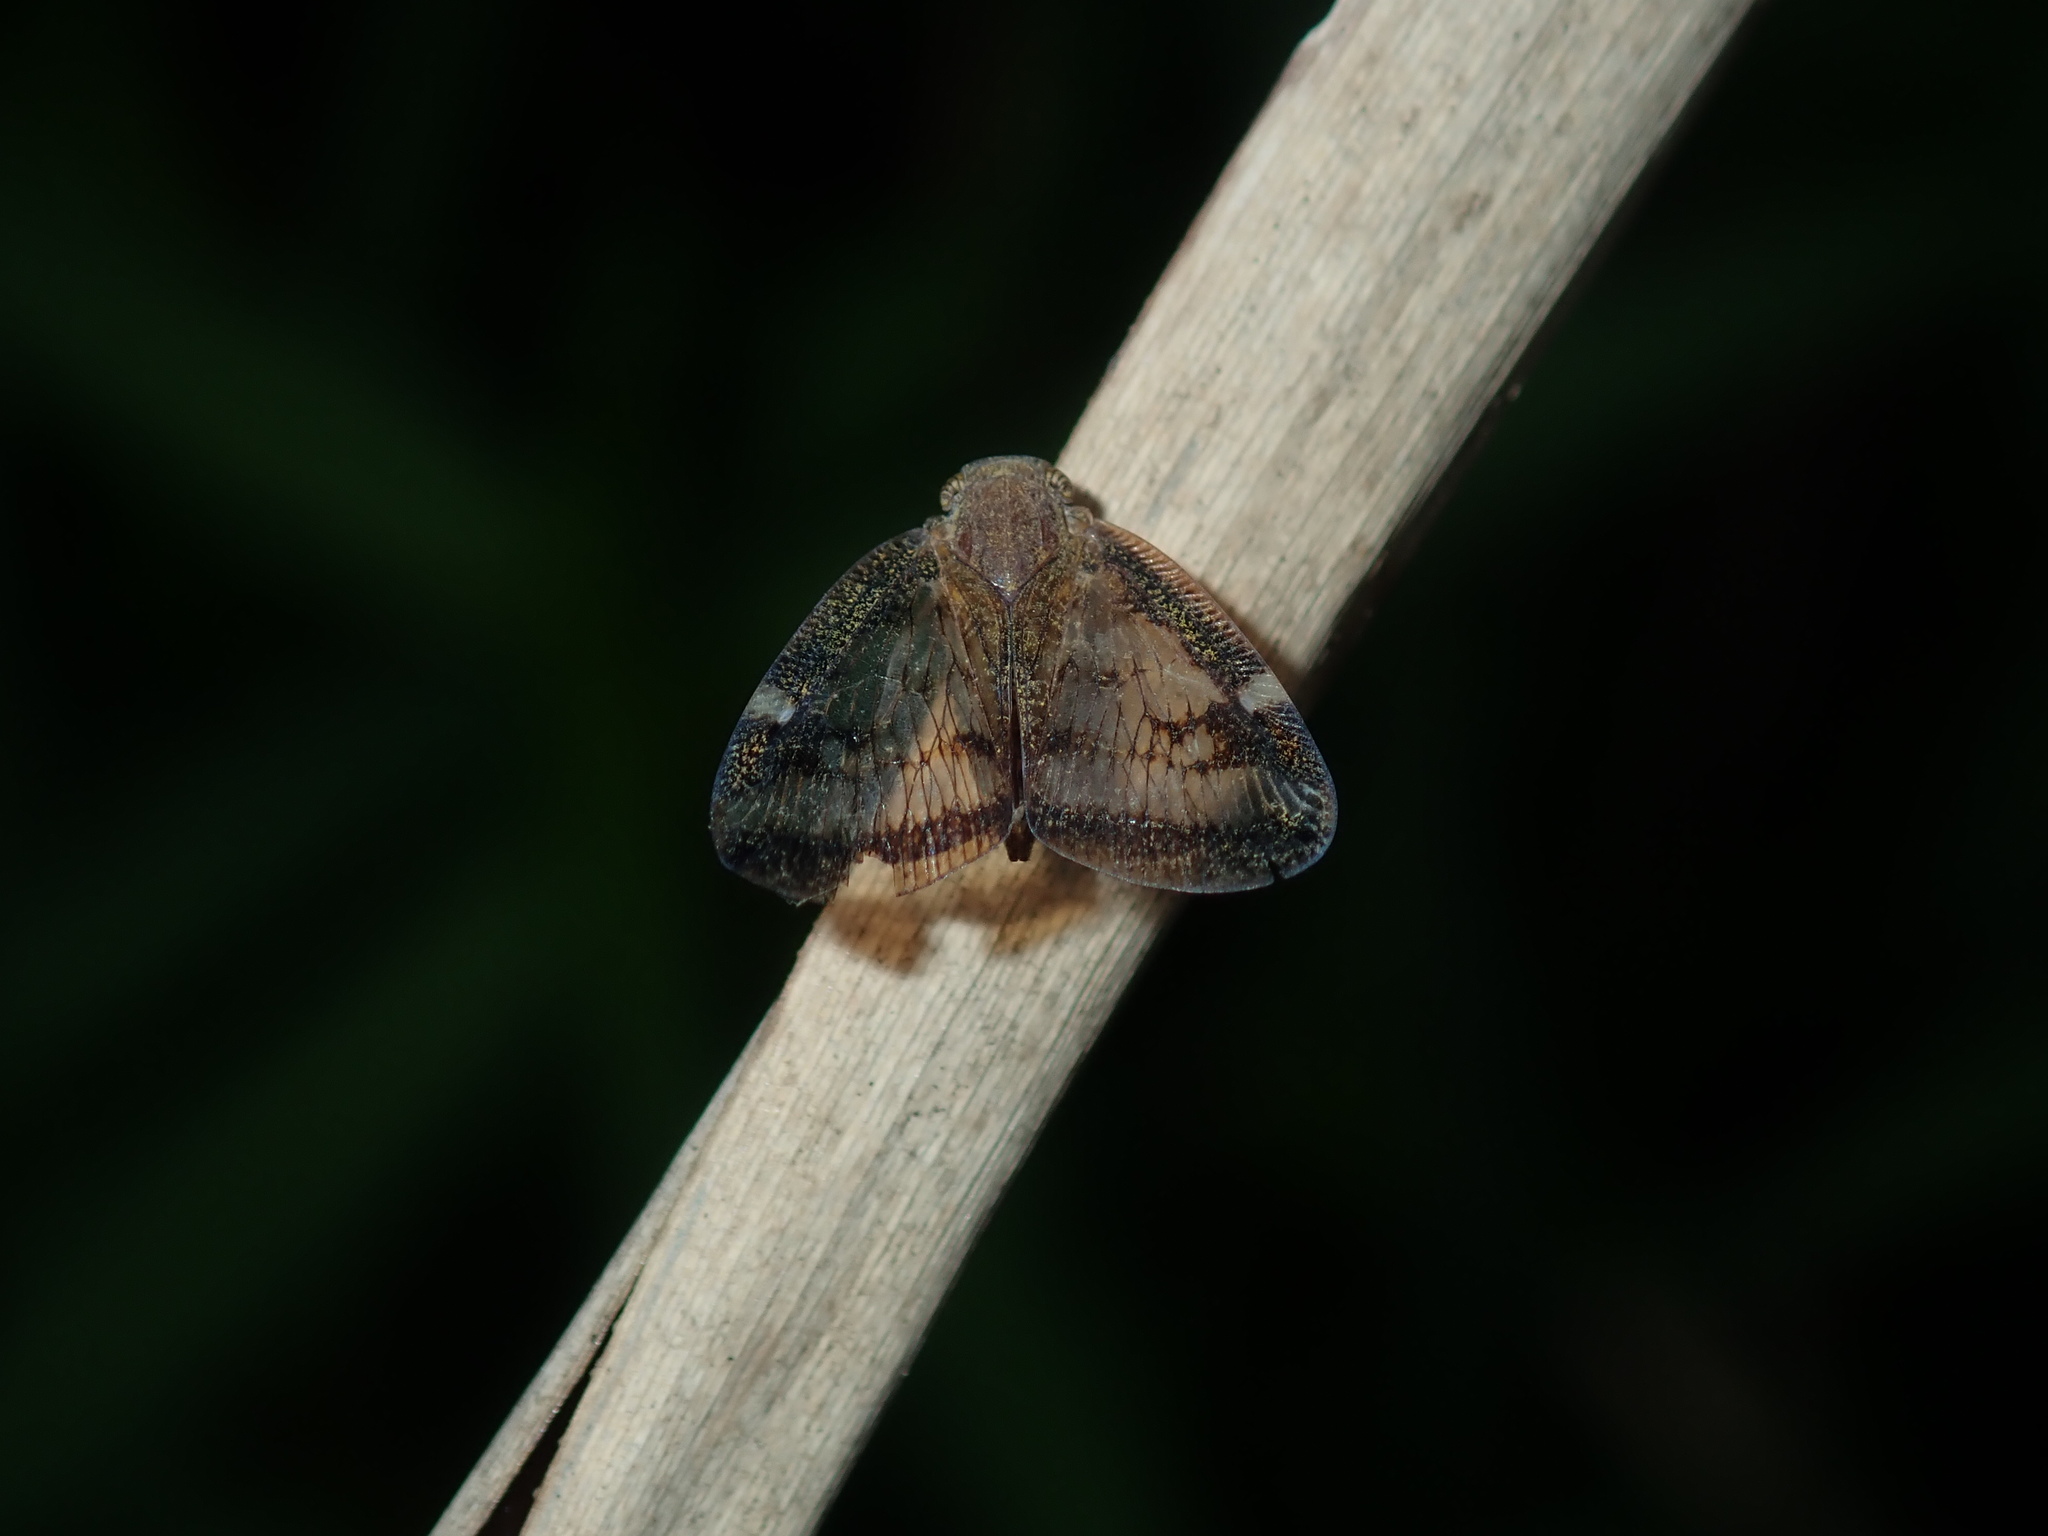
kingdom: Animalia
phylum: Arthropoda
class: Insecta
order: Hemiptera
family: Ricaniidae
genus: Scolypopa
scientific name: Scolypopa australis
